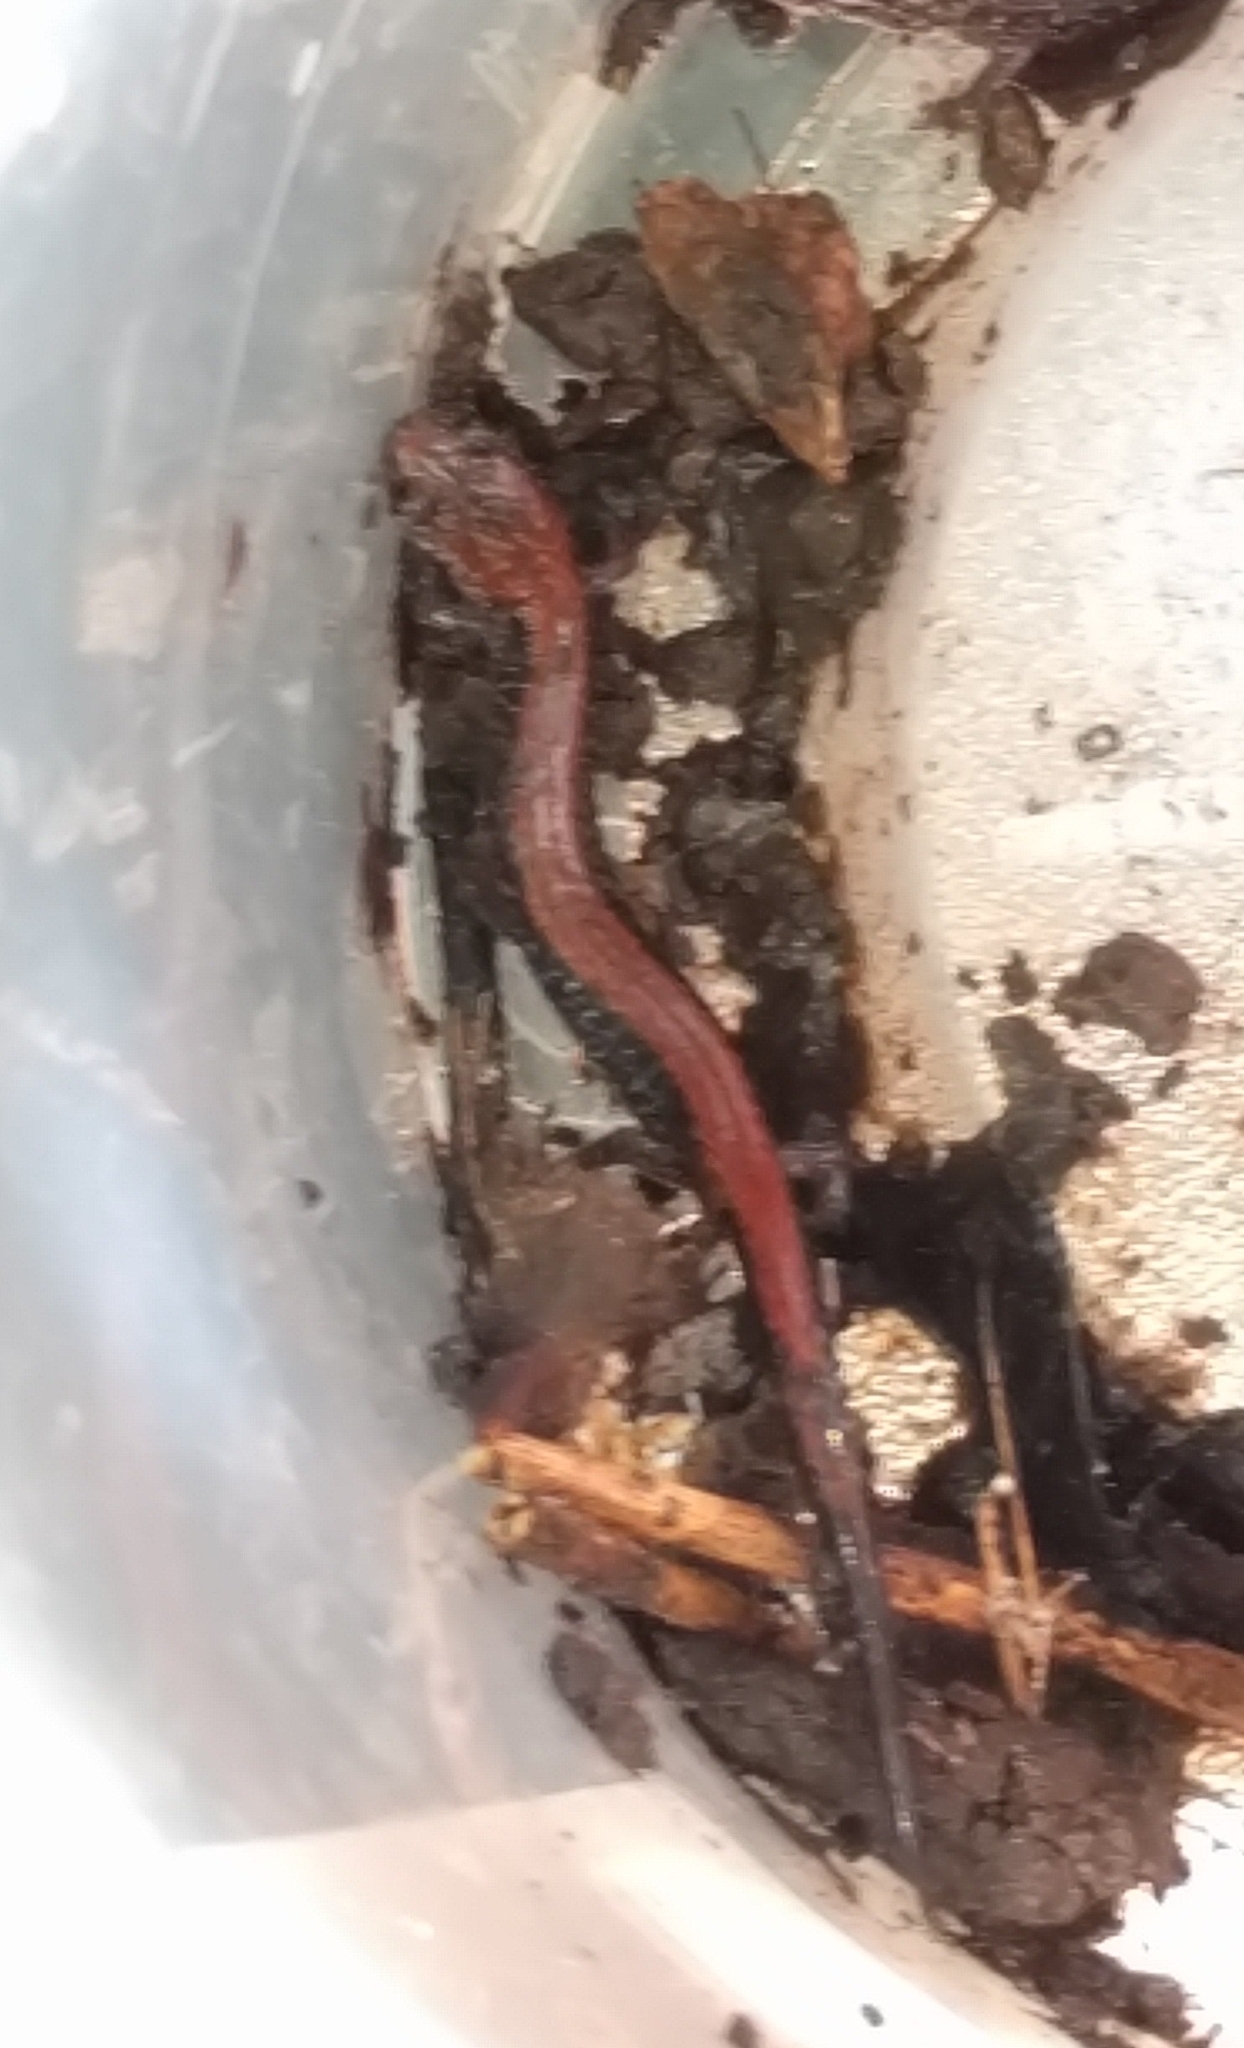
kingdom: Animalia
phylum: Chordata
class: Amphibia
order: Caudata
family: Plethodontidae
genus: Plethodon
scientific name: Plethodon cinereus
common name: Redback salamander
